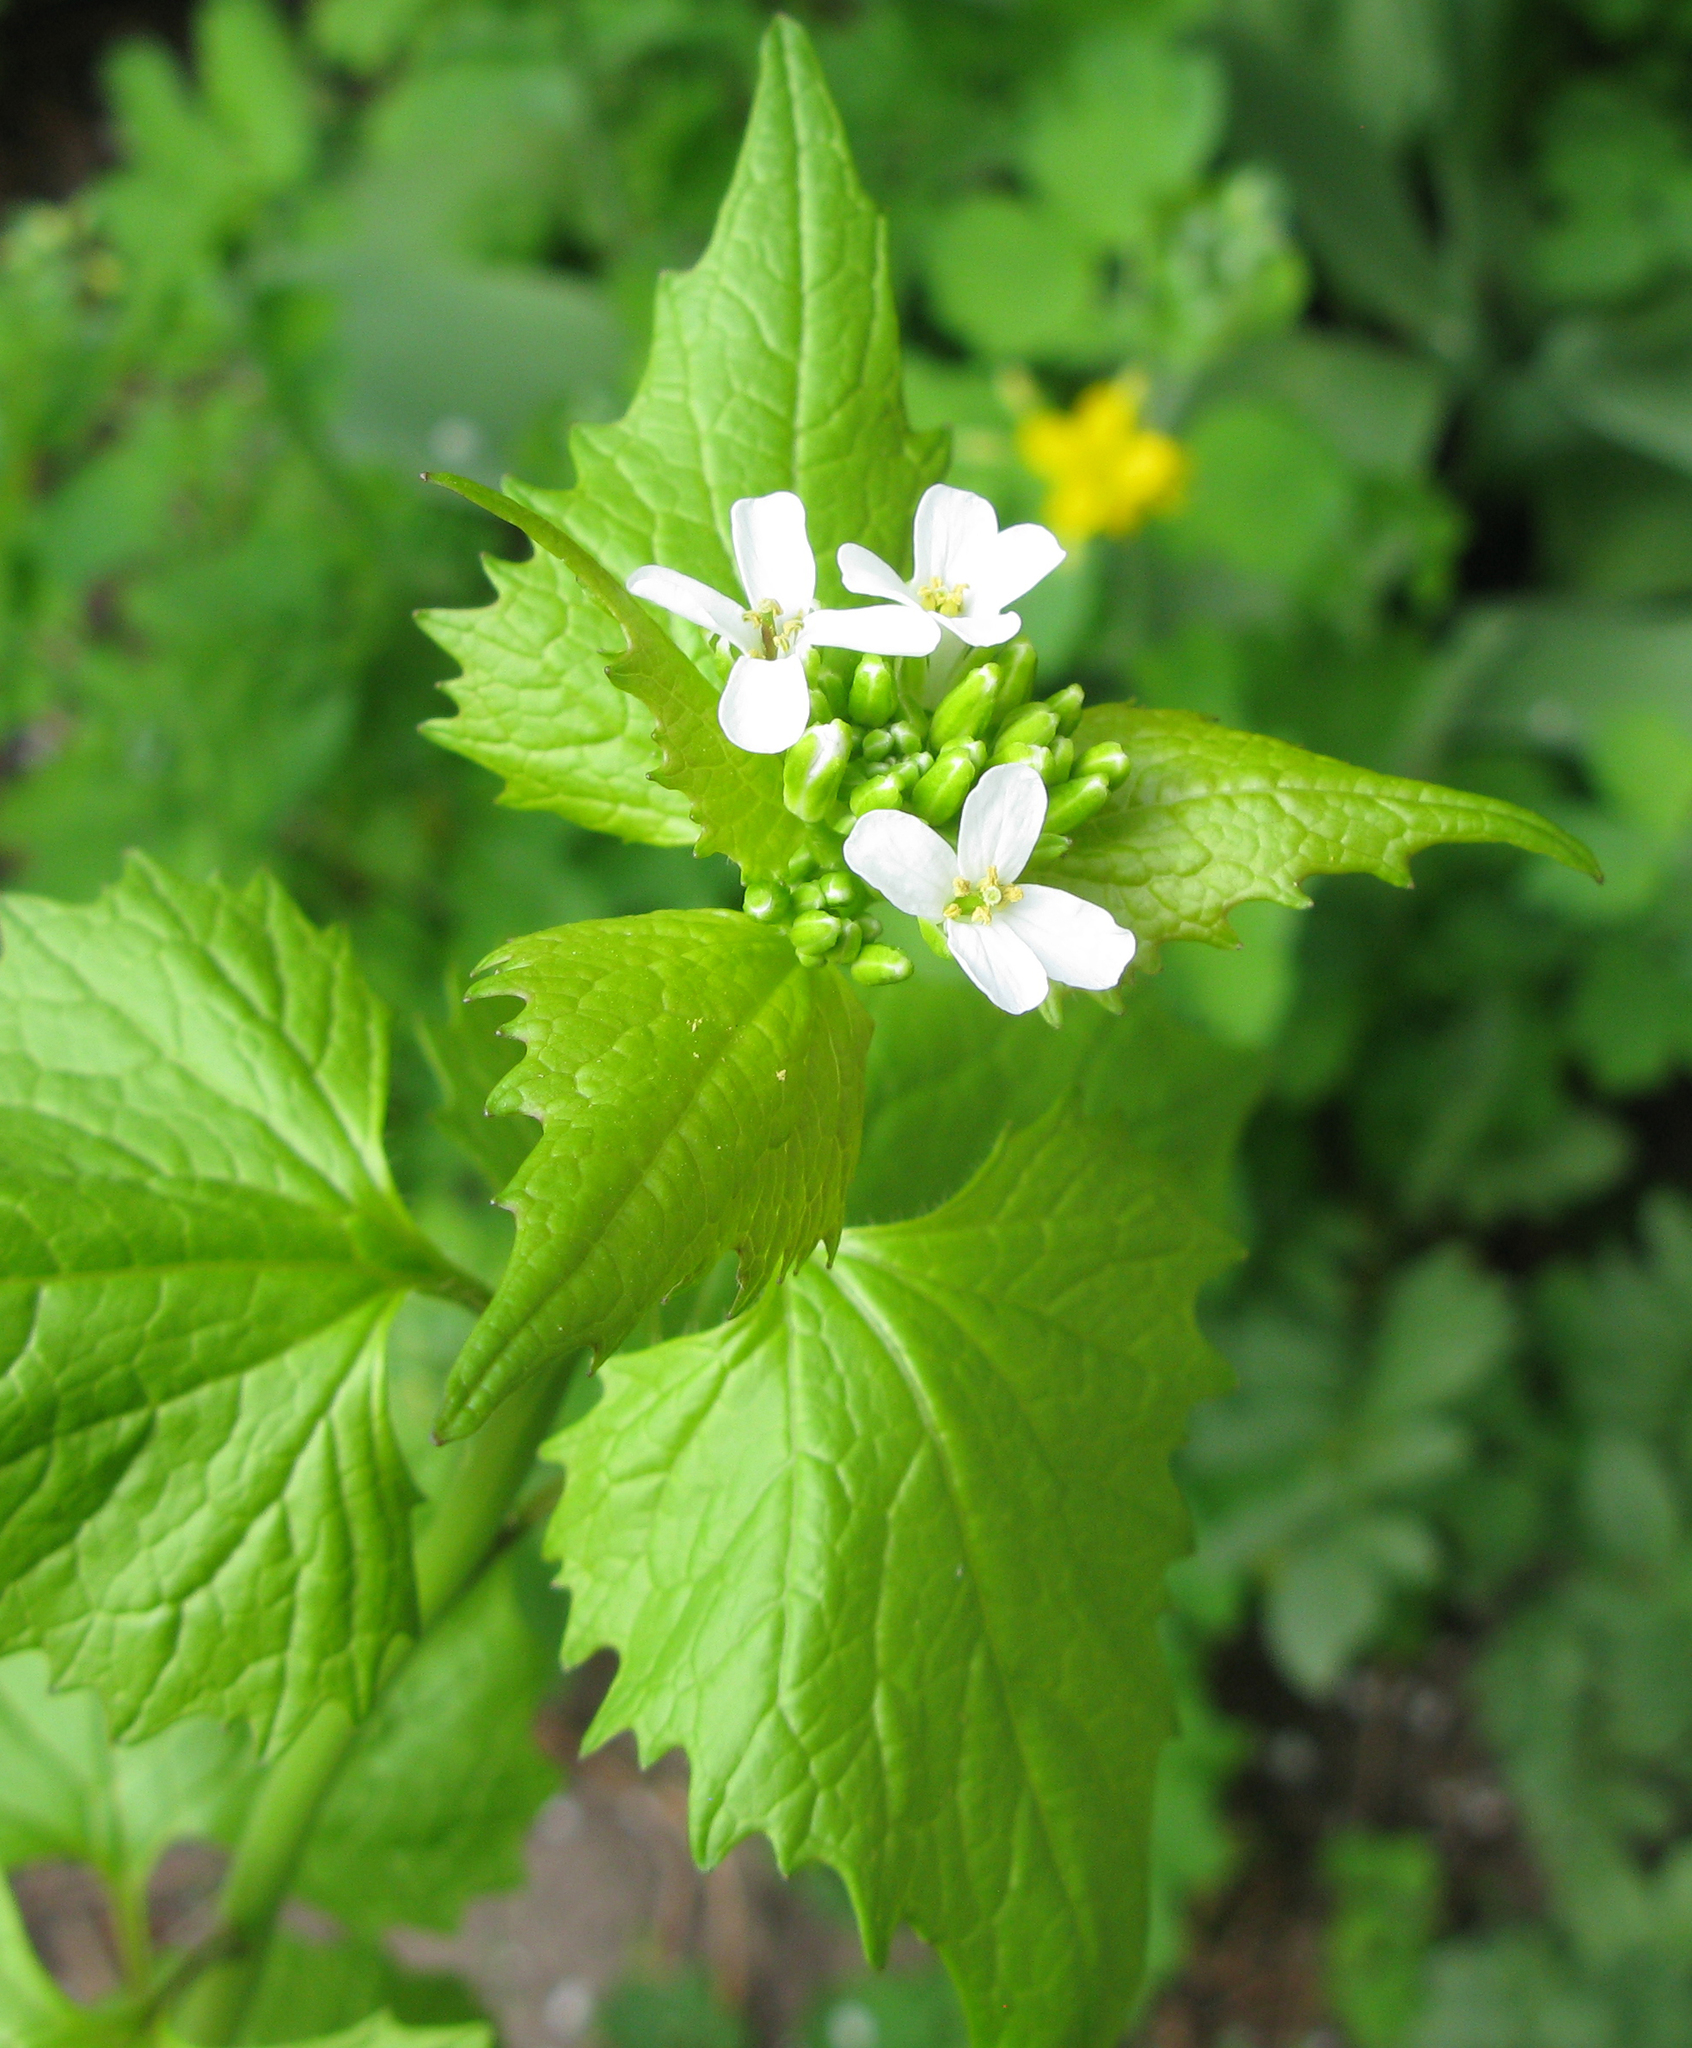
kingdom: Plantae
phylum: Tracheophyta
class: Magnoliopsida
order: Brassicales
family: Brassicaceae
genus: Alliaria
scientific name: Alliaria petiolata
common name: Garlic mustard
